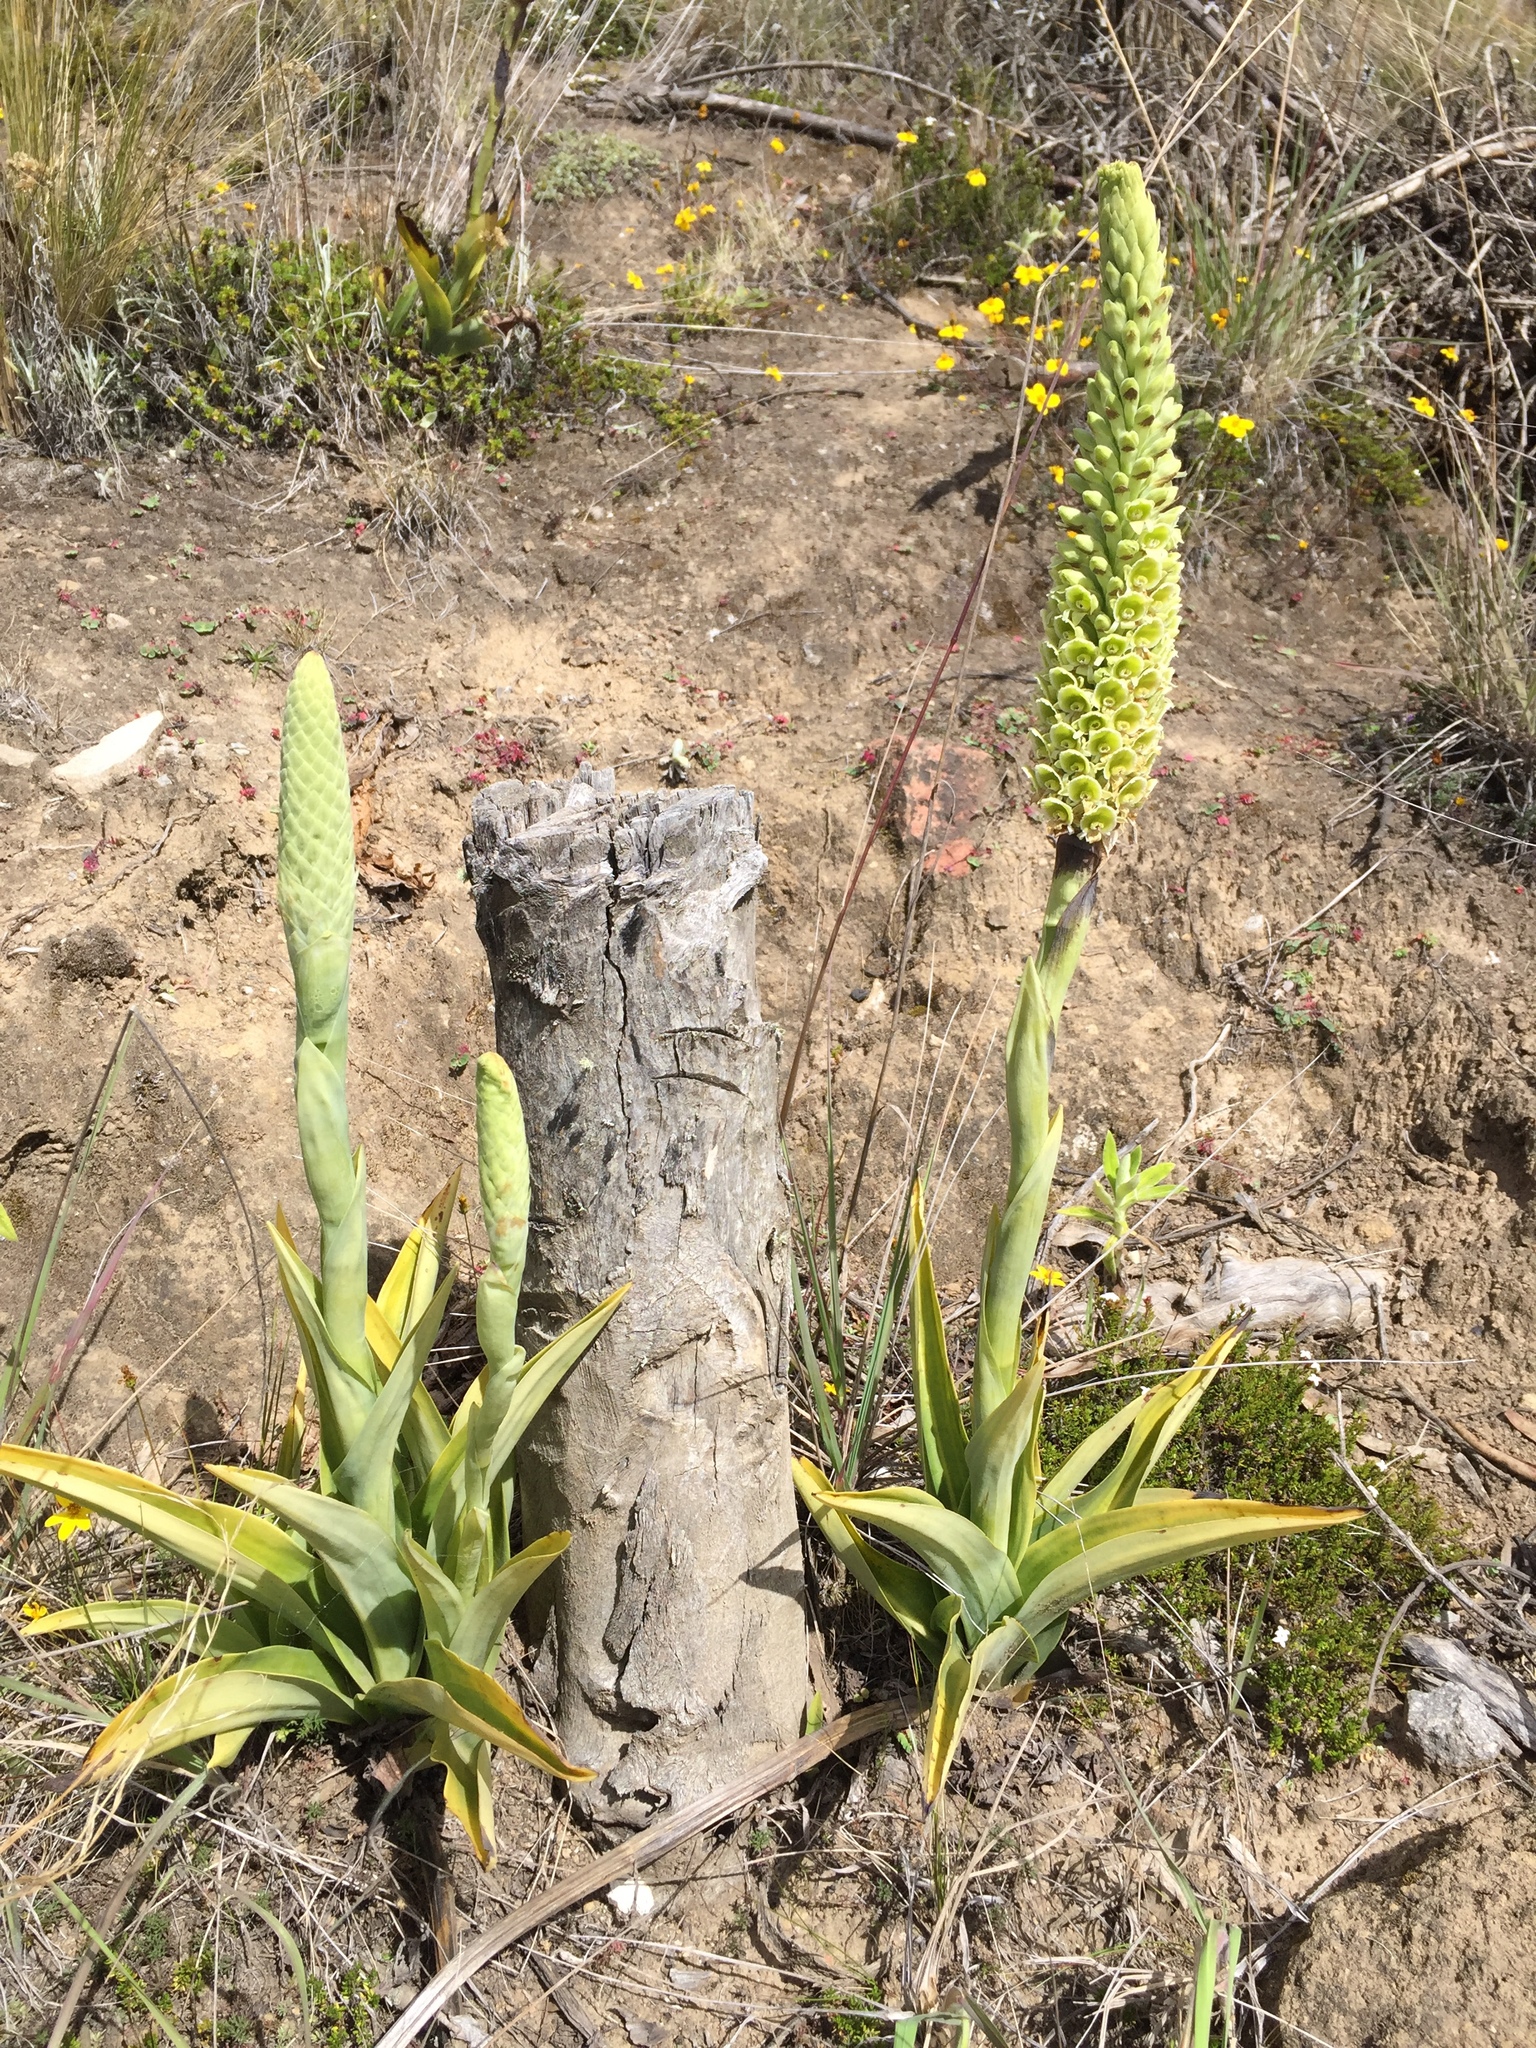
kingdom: Plantae
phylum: Tracheophyta
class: Liliopsida
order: Asparagales
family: Orchidaceae
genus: Altensteinia
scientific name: Altensteinia fimbriata
